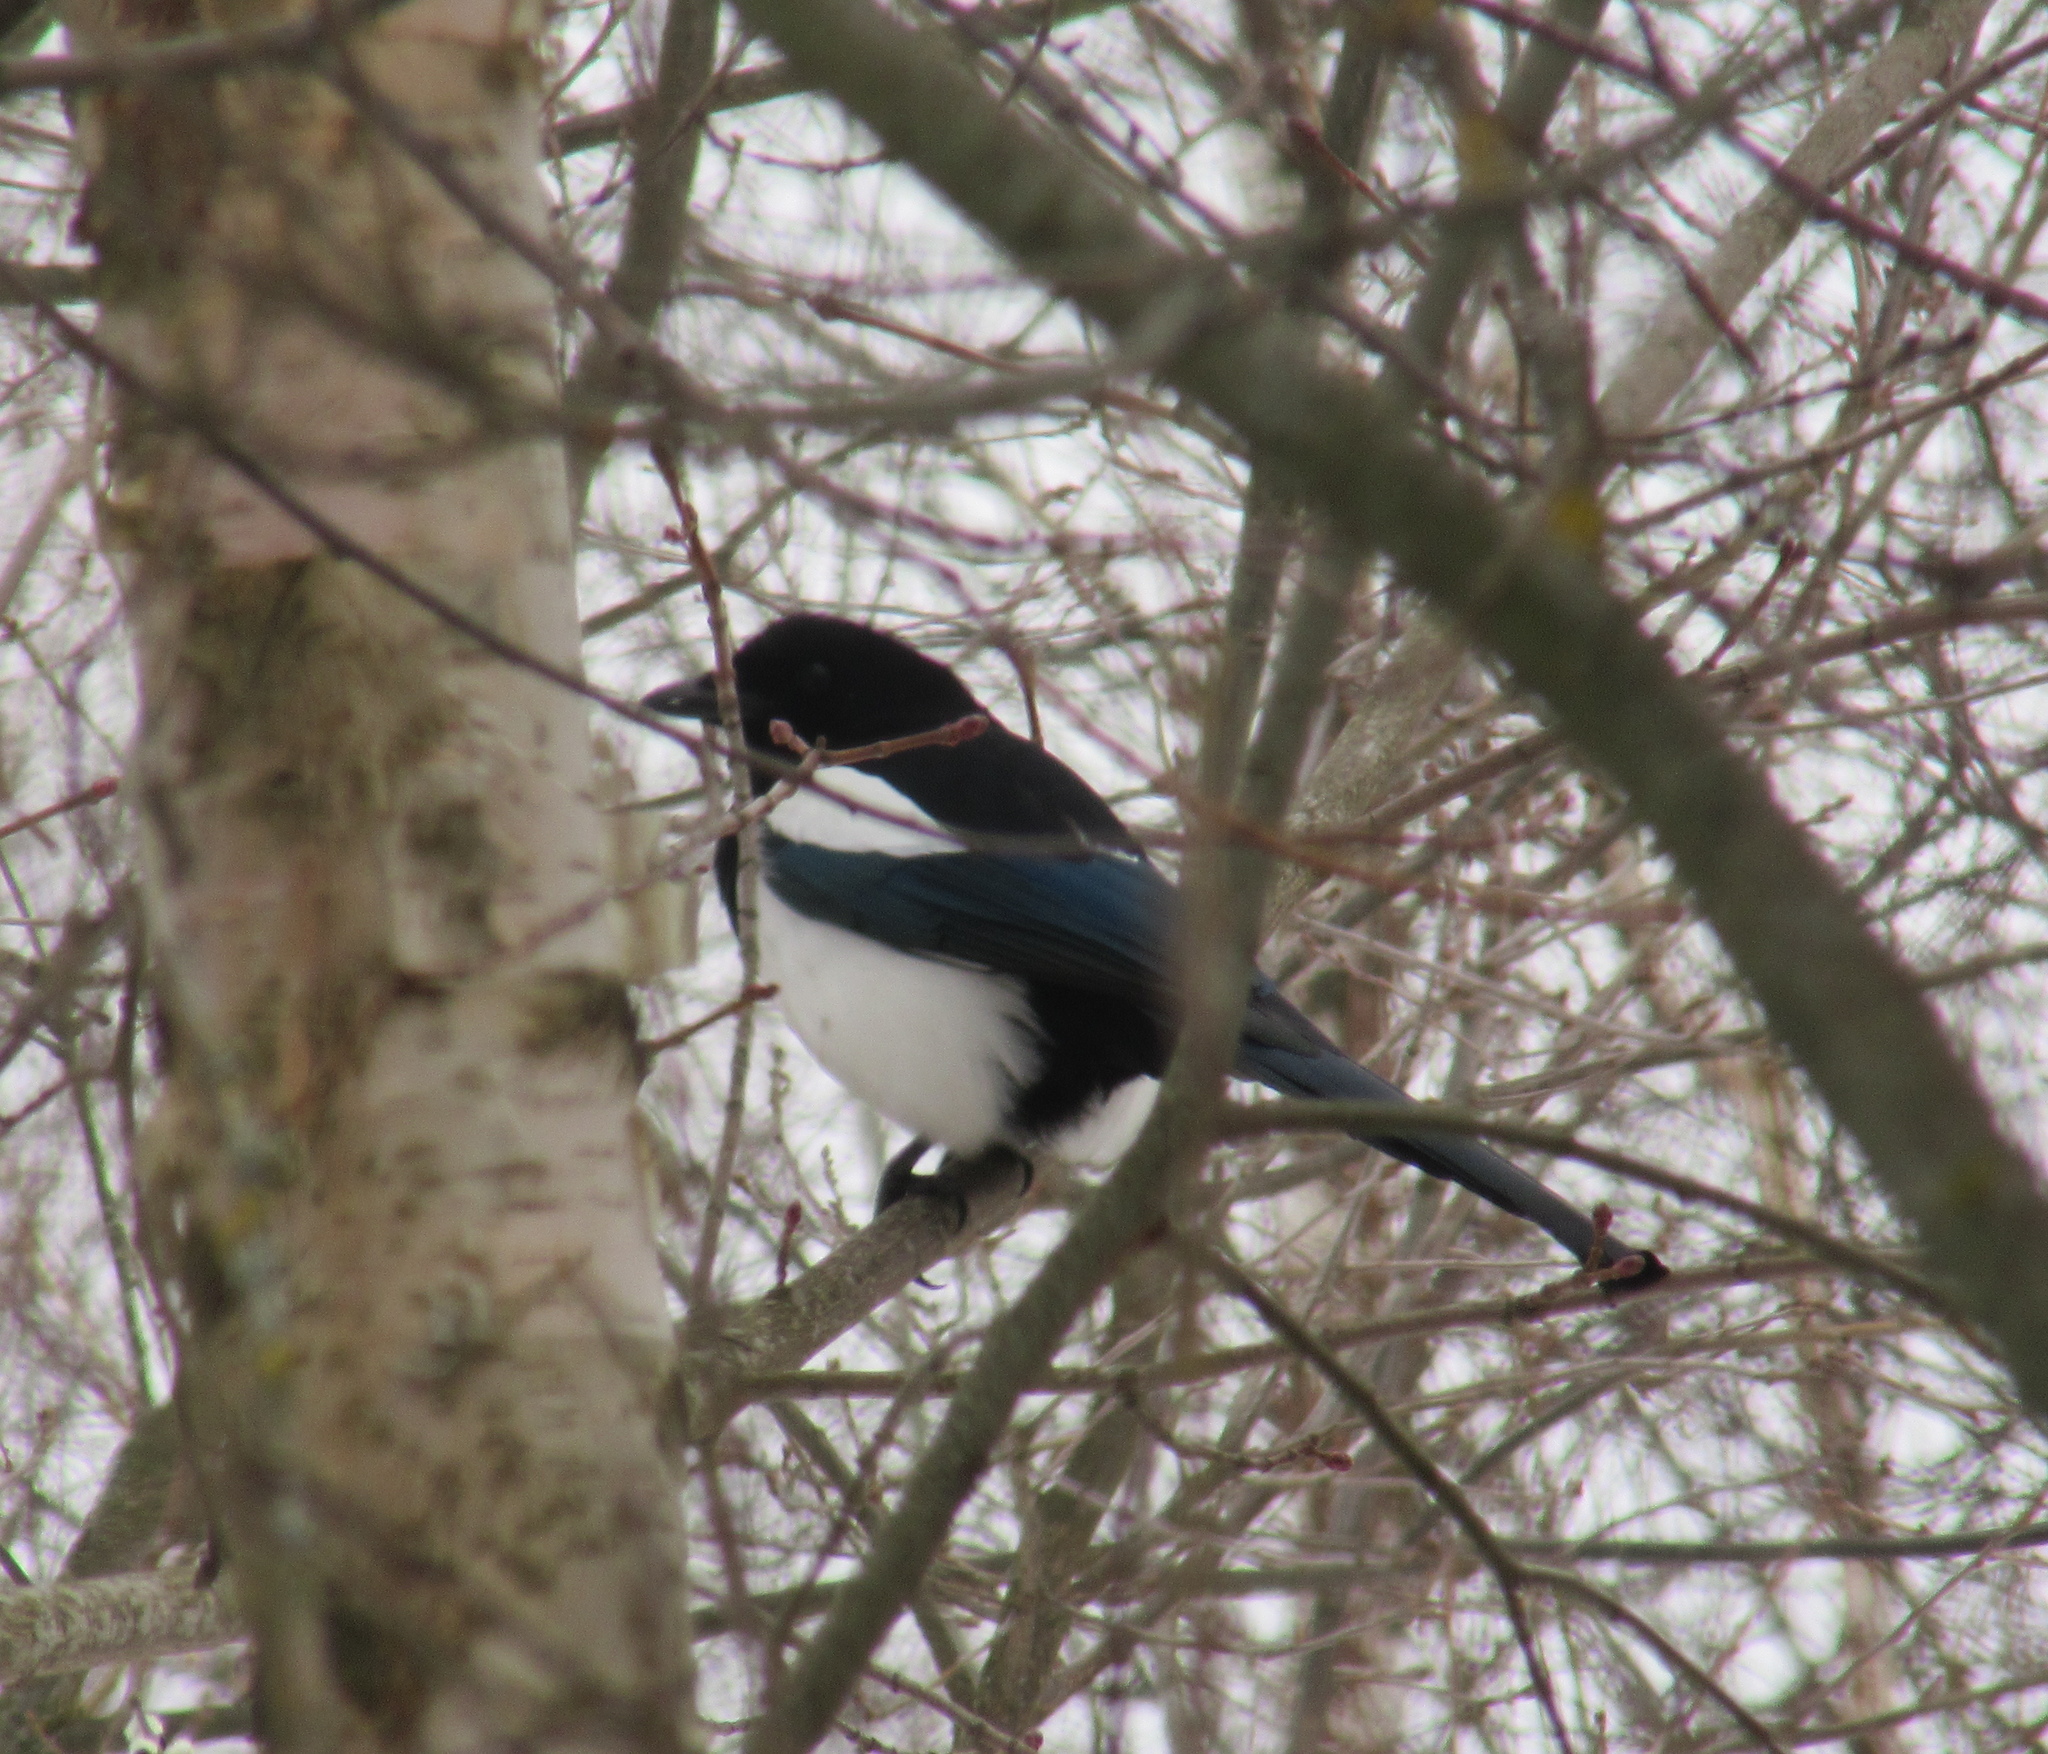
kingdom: Animalia
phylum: Chordata
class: Aves
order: Passeriformes
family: Corvidae
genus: Pica
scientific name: Pica pica
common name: Eurasian magpie
